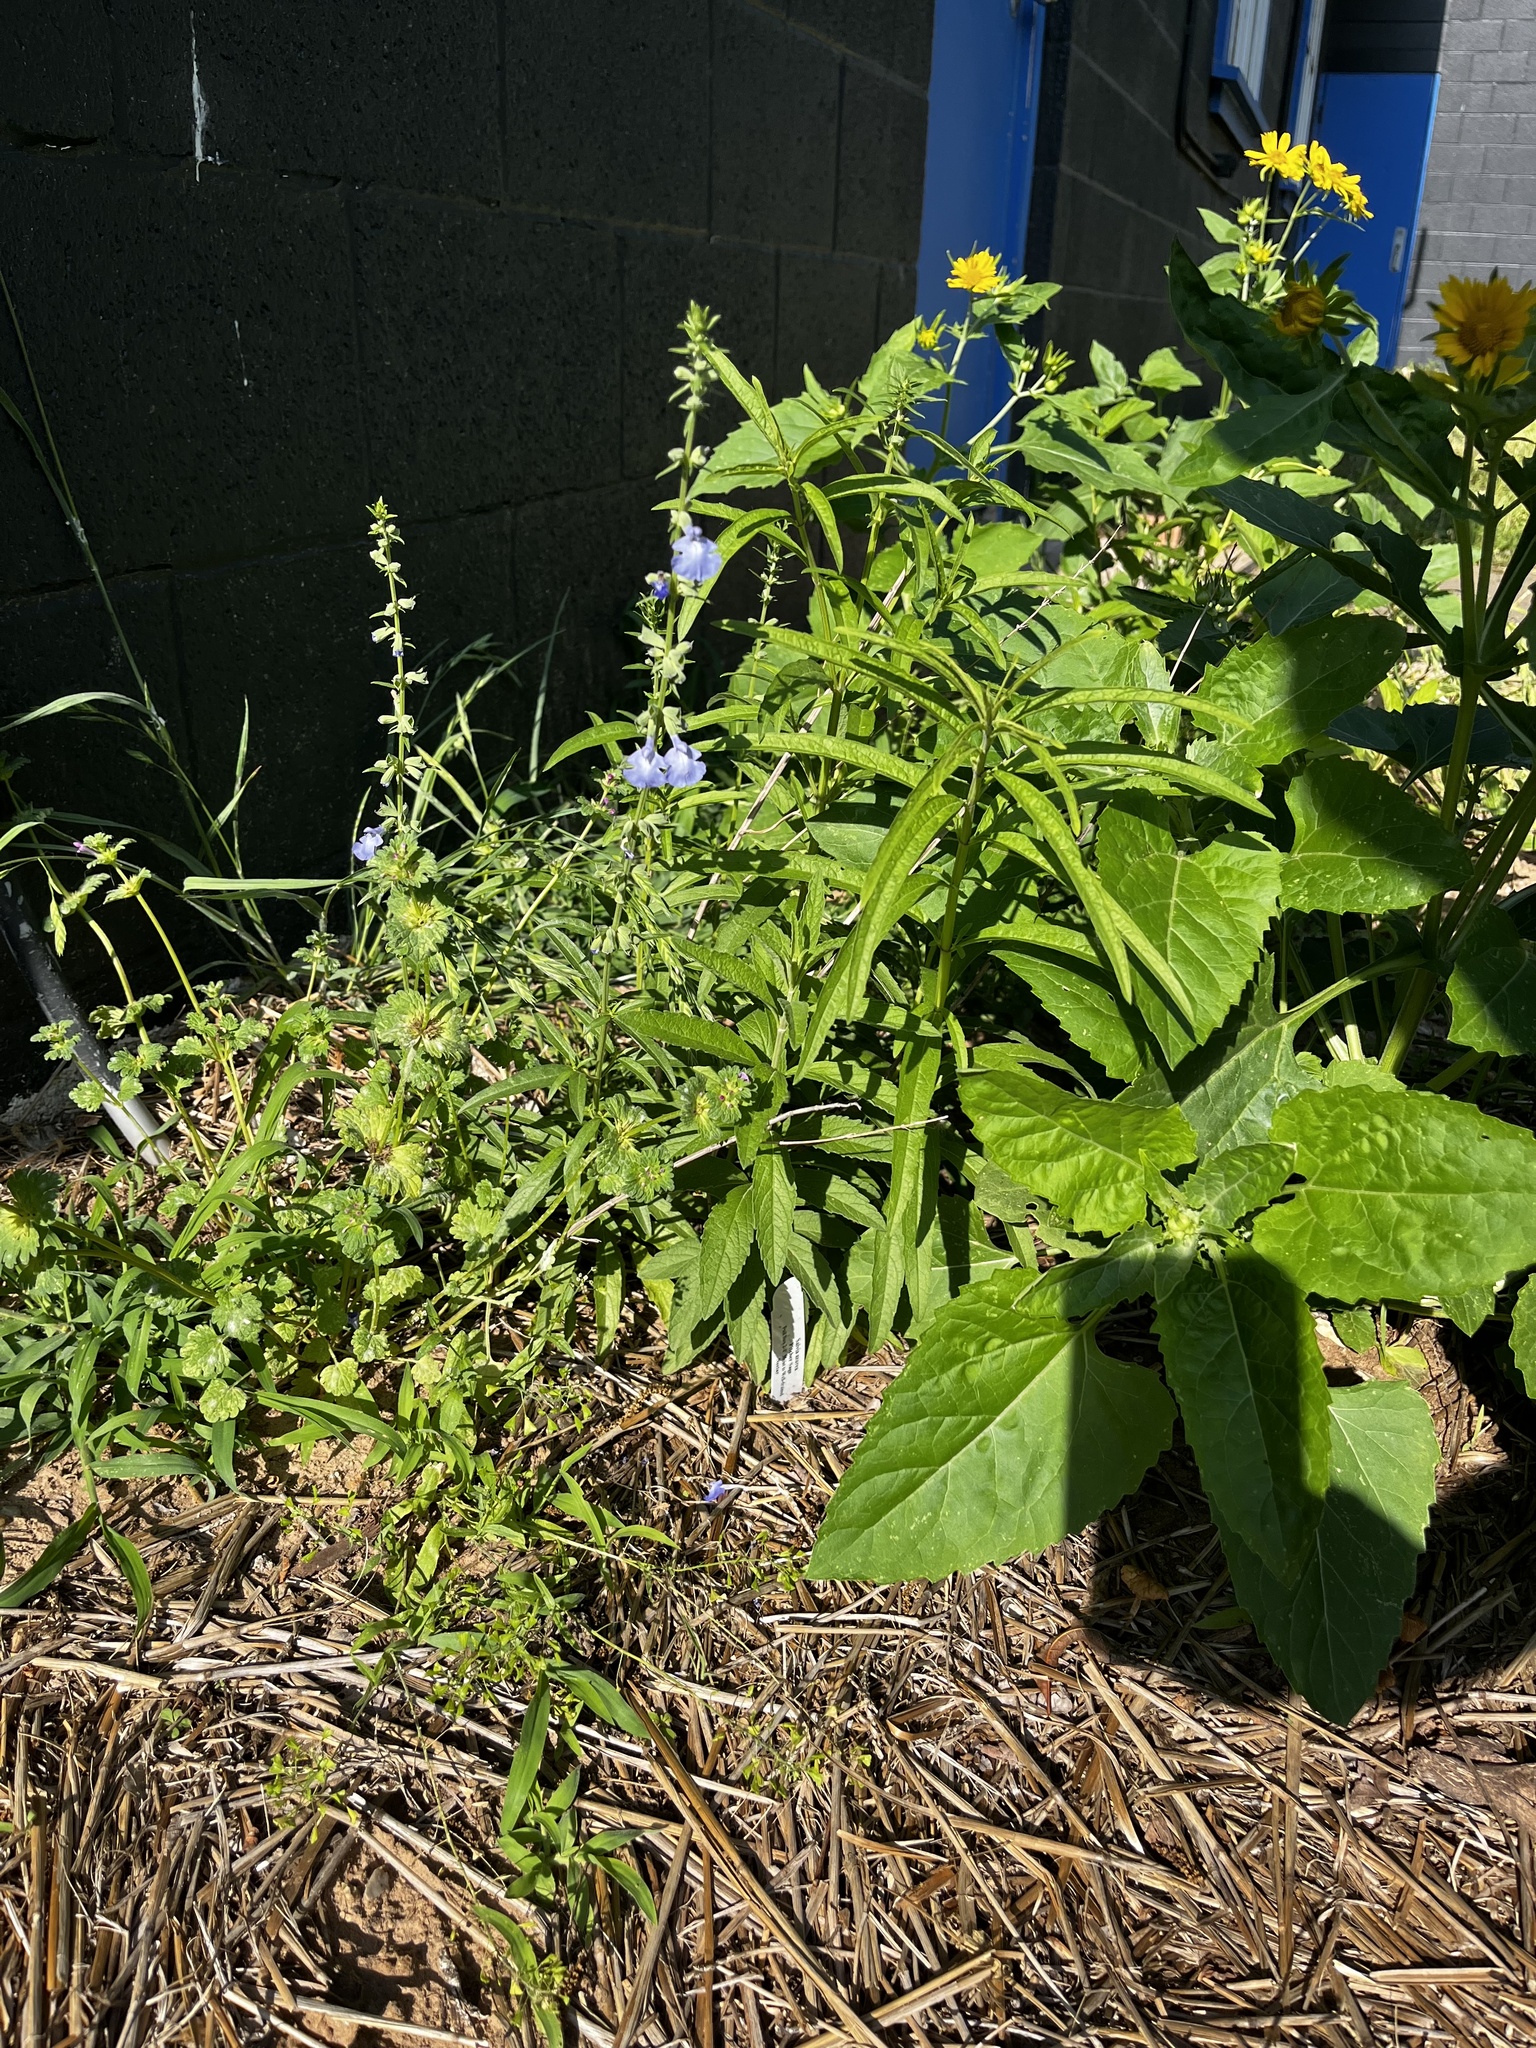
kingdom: Plantae
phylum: Tracheophyta
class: Magnoliopsida
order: Lamiales
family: Lamiaceae
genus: Salvia
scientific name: Salvia azurea
